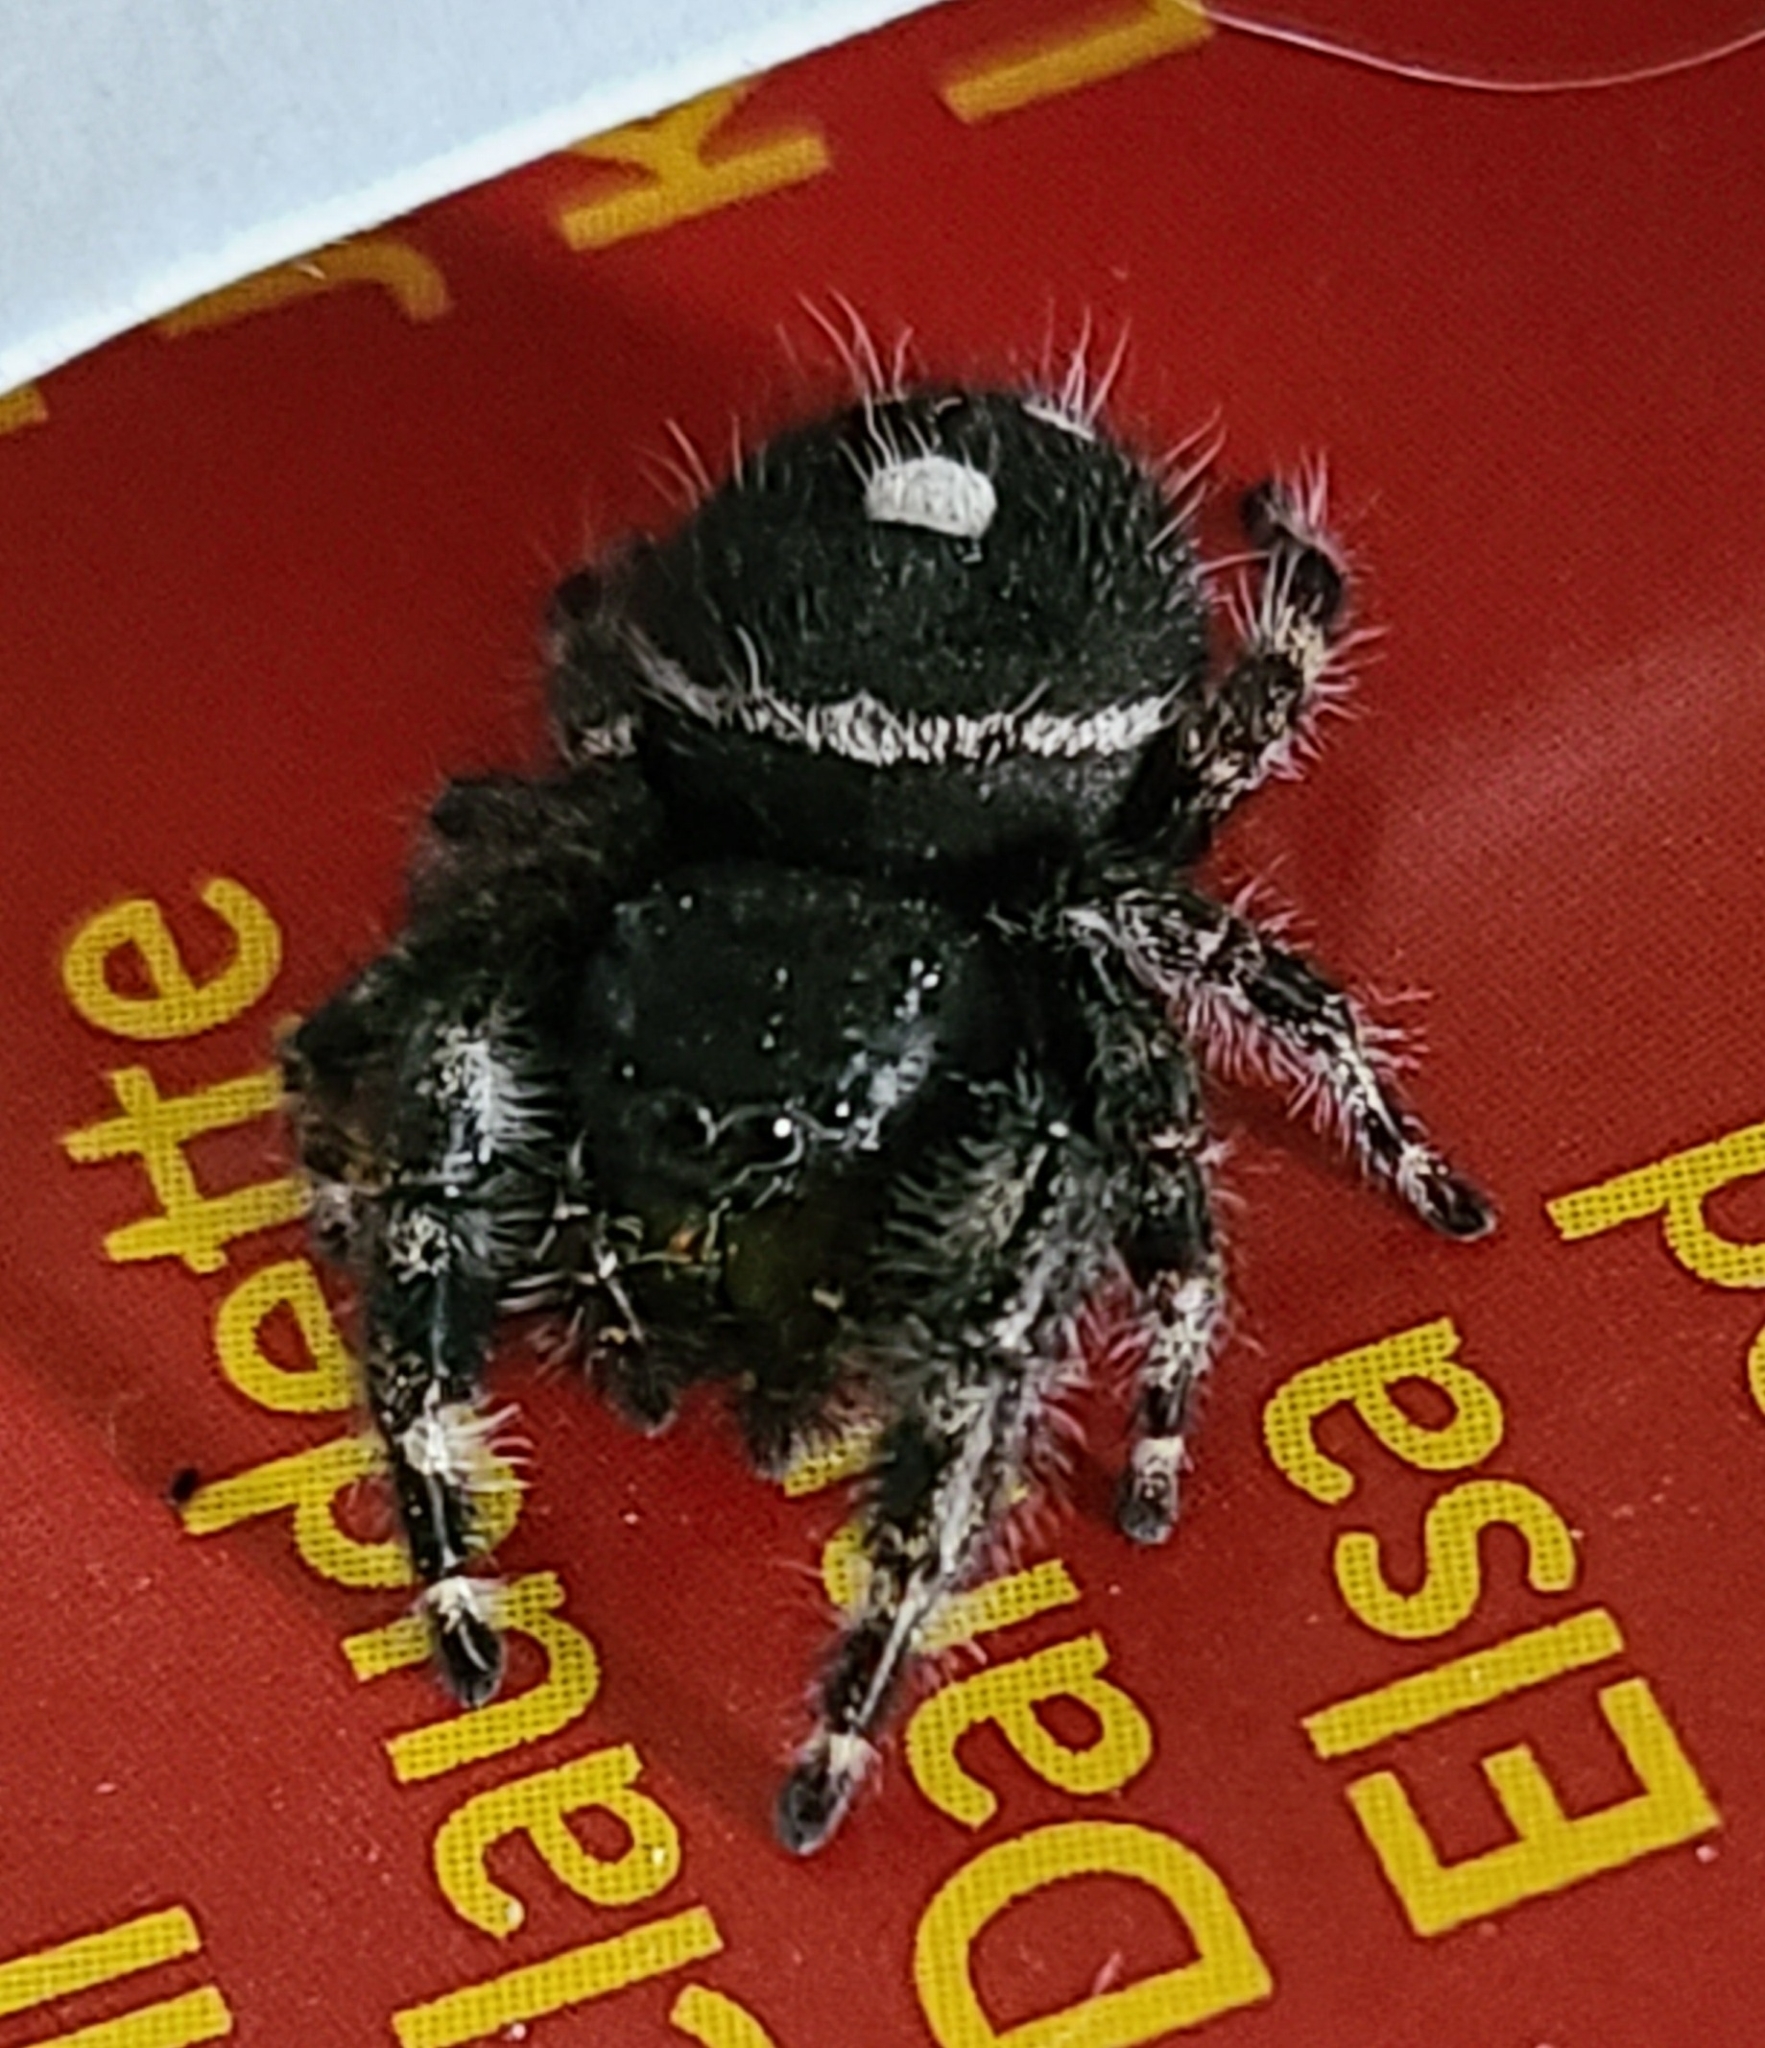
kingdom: Animalia
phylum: Arthropoda
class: Arachnida
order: Araneae
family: Salticidae
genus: Phidippus
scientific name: Phidippus audax
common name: Bold jumper
